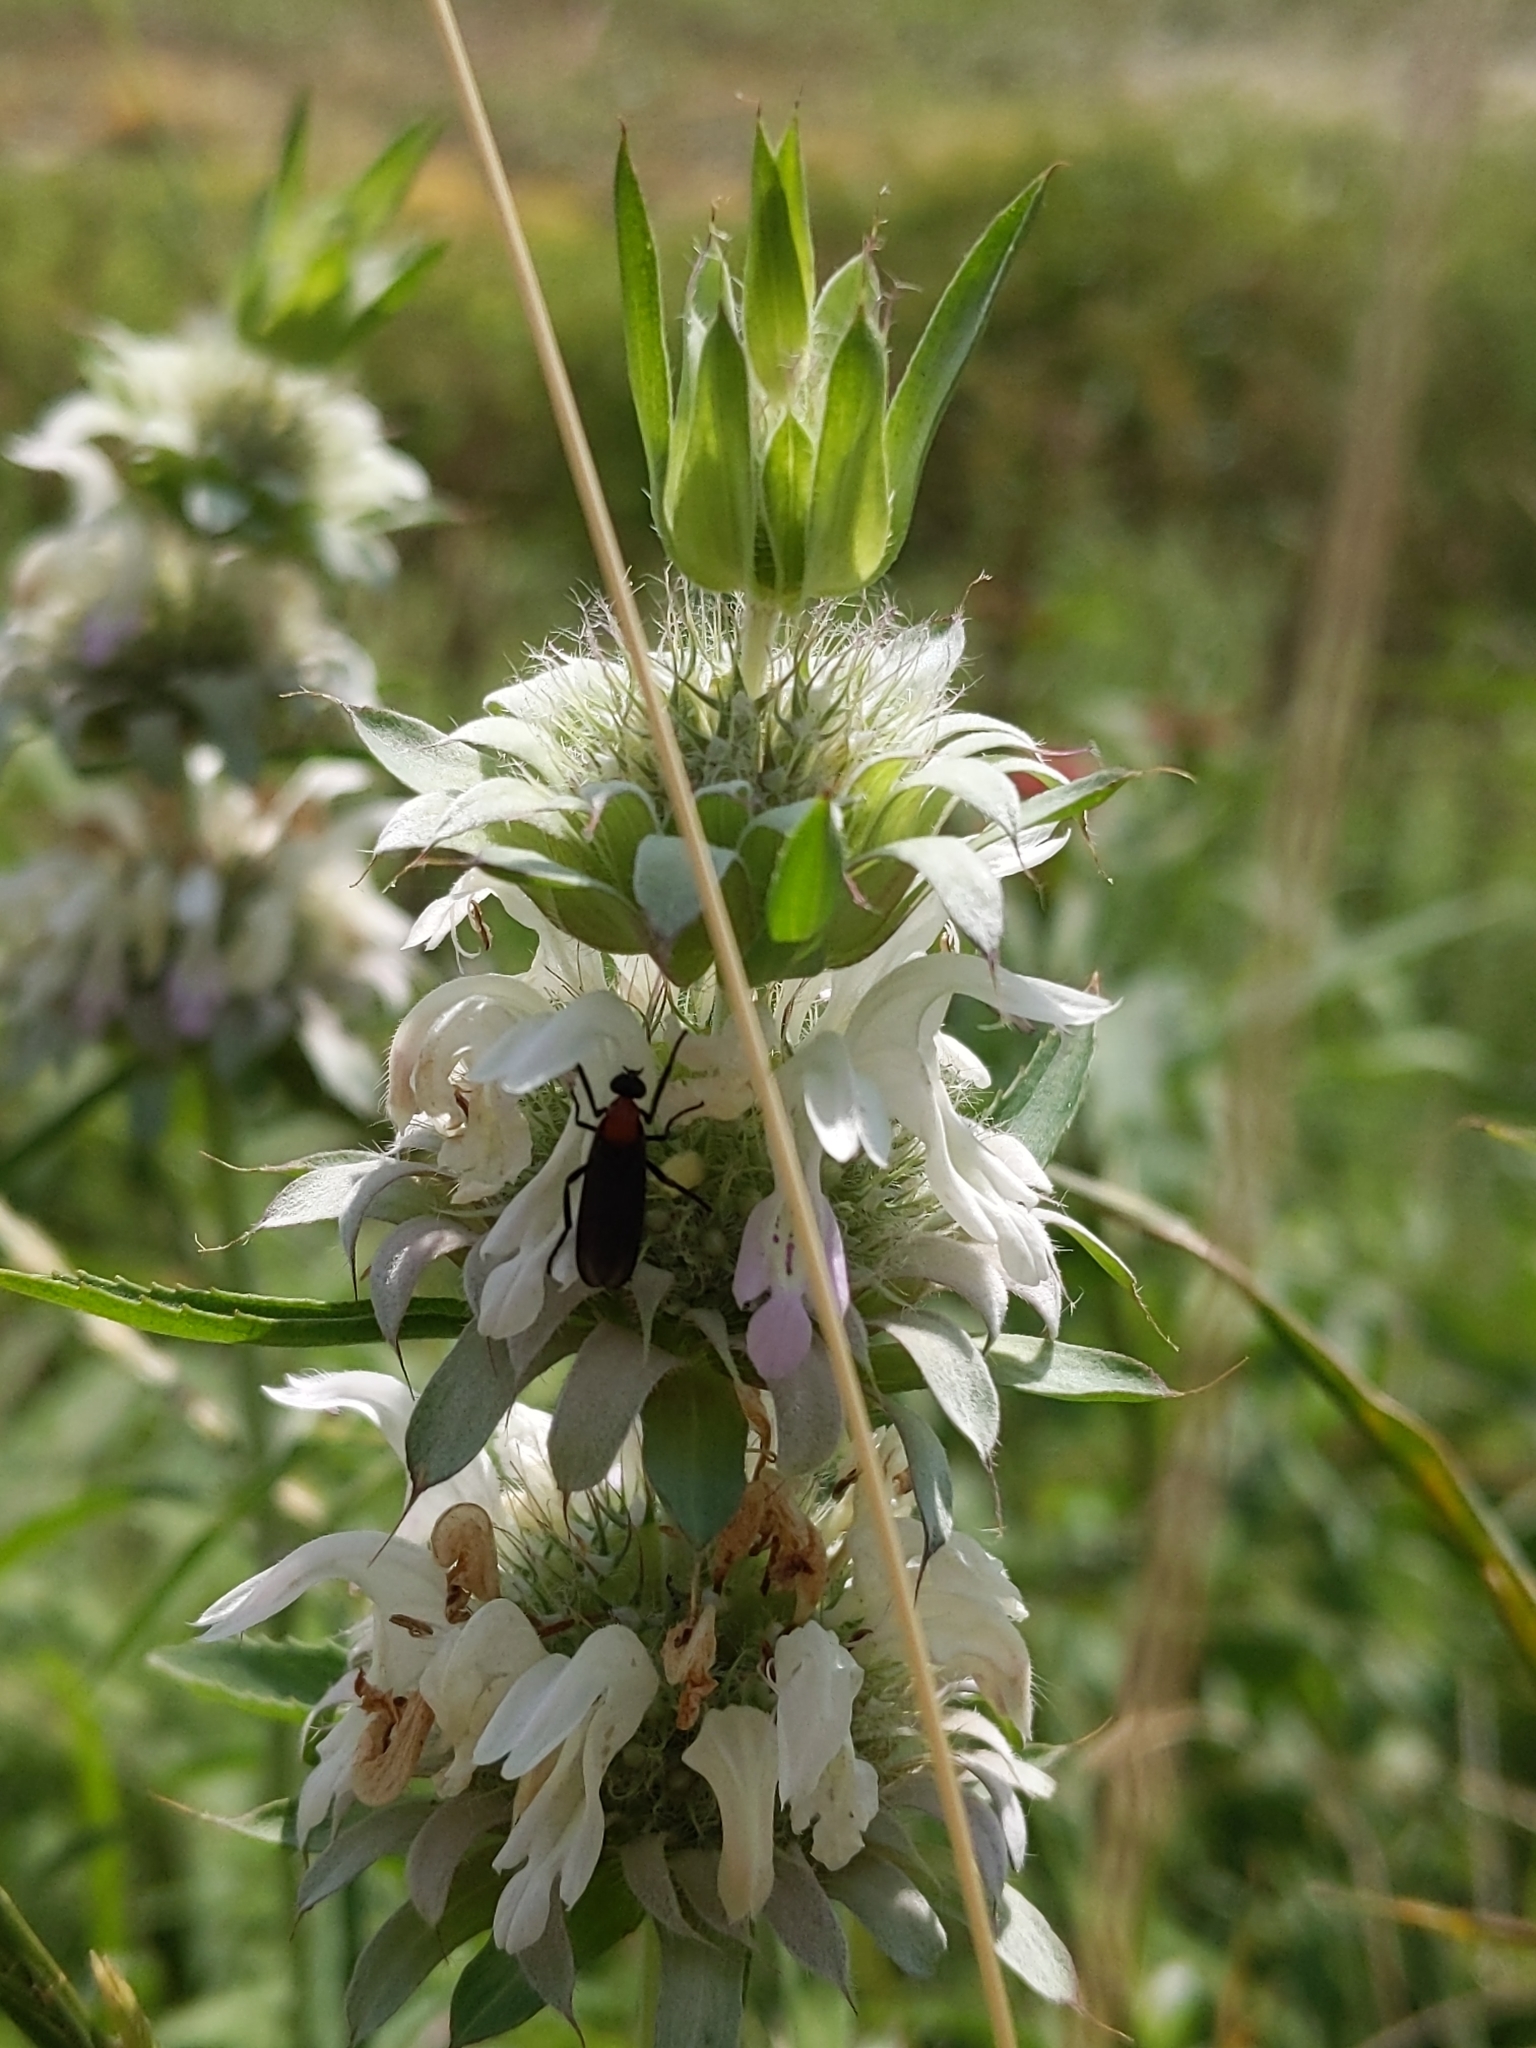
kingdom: Animalia
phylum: Arthropoda
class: Insecta
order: Diptera
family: Bibionidae
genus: Plecia
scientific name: Plecia nearctica
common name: March fly
